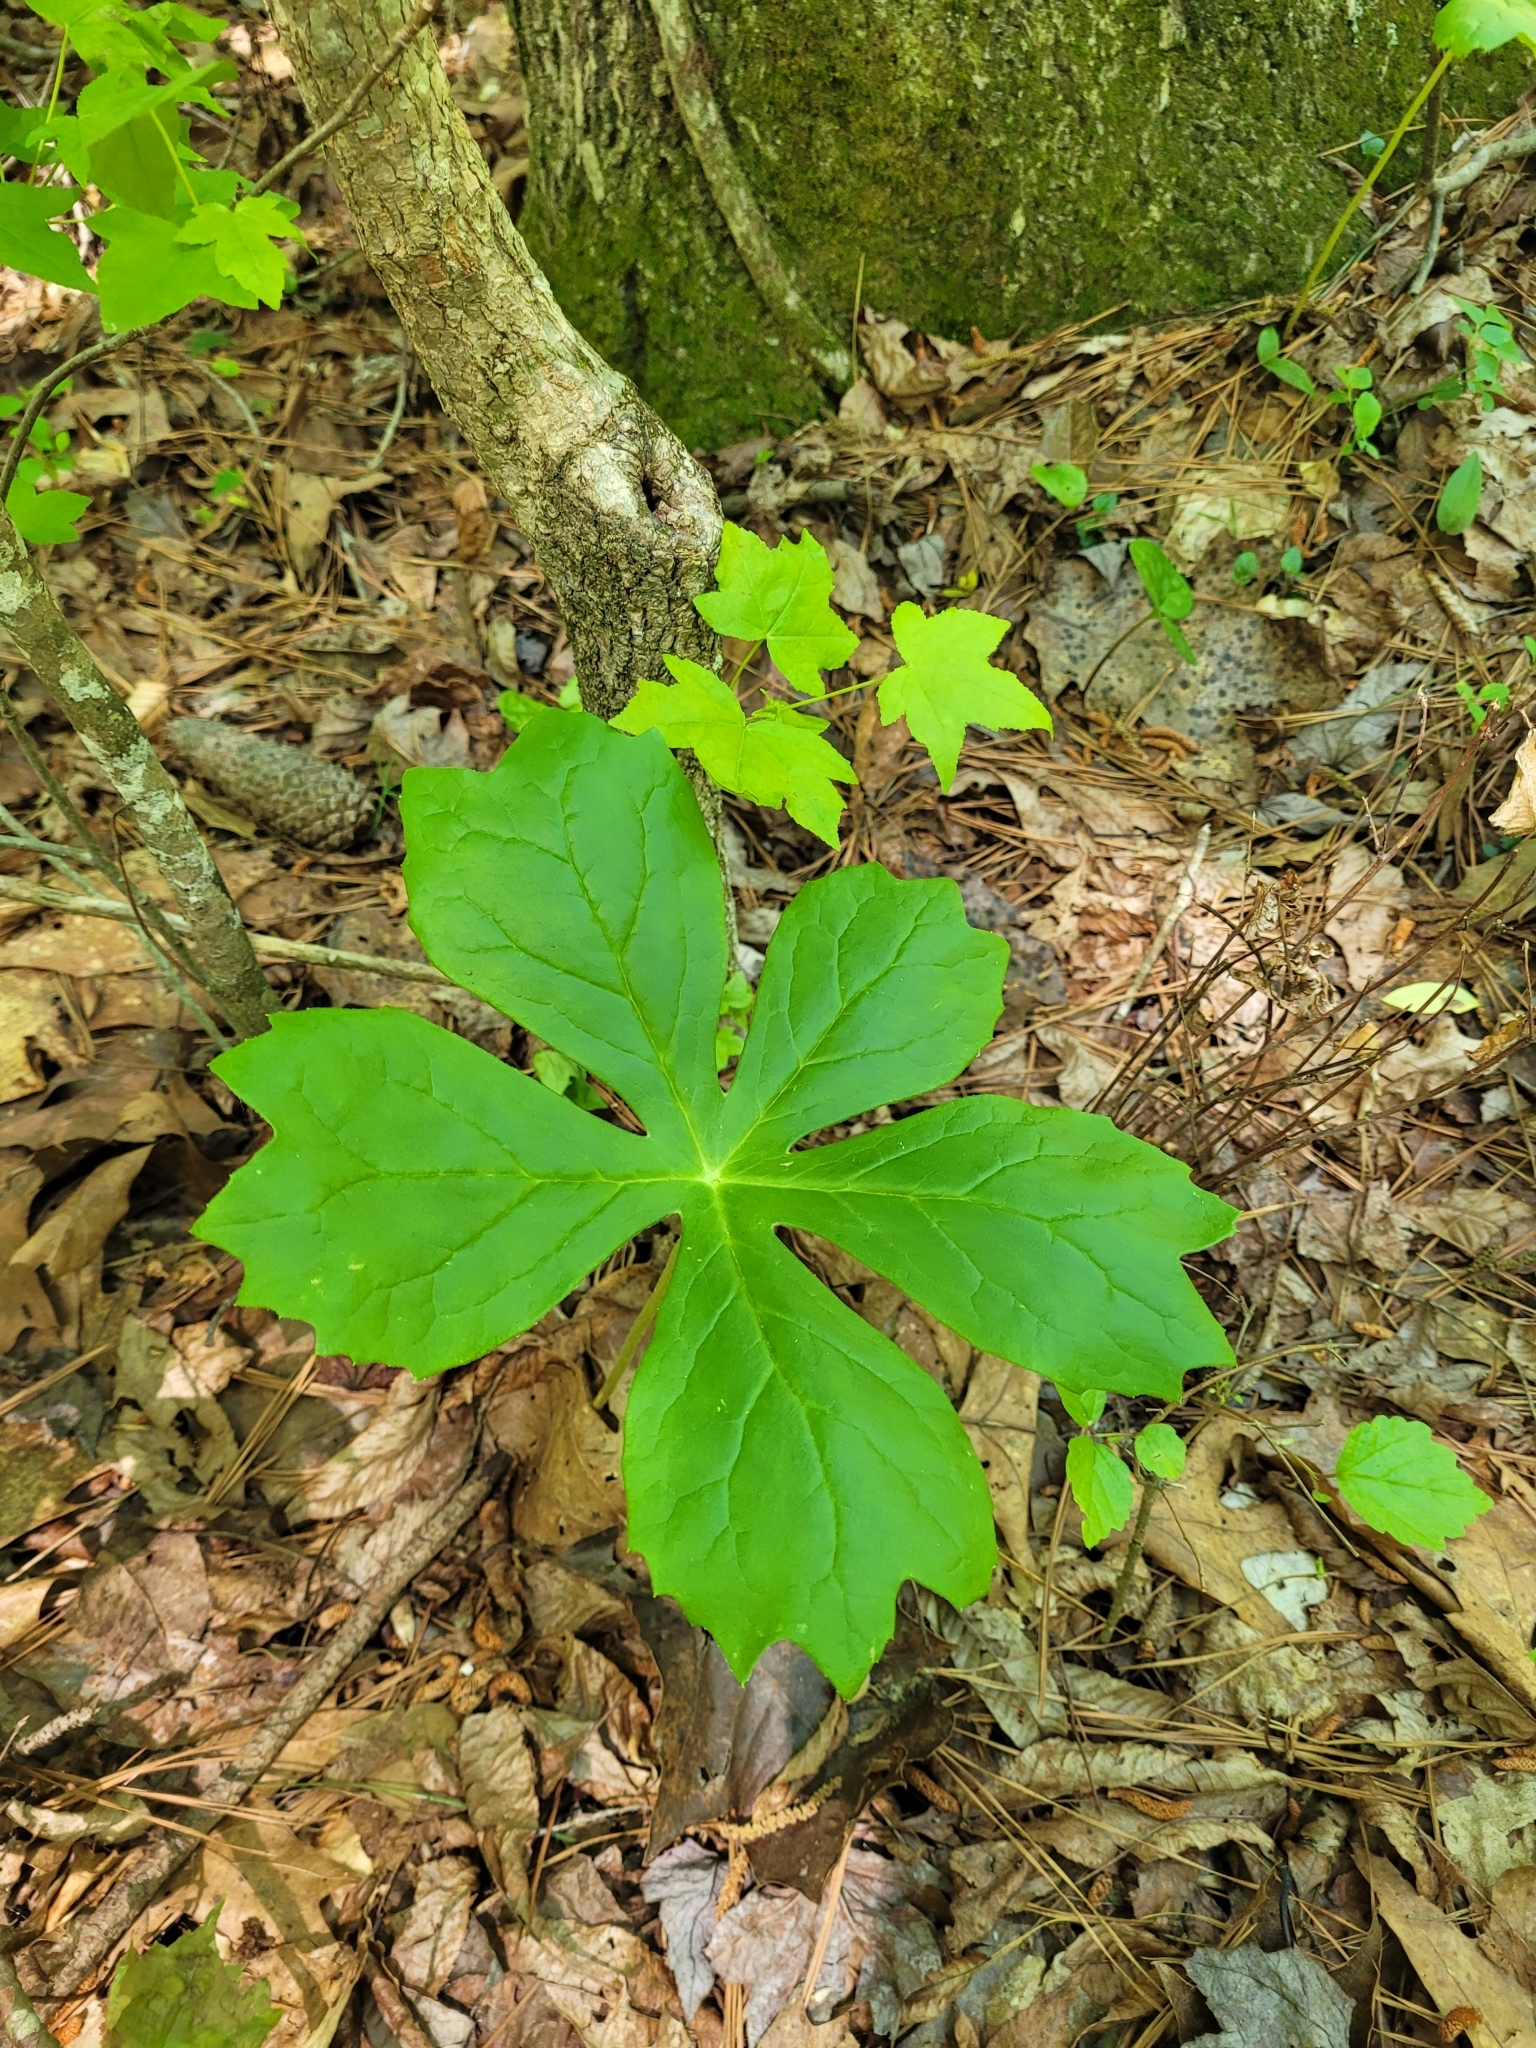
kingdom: Plantae
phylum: Tracheophyta
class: Magnoliopsida
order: Ranunculales
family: Berberidaceae
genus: Podophyllum
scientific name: Podophyllum peltatum
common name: Wild mandrake
